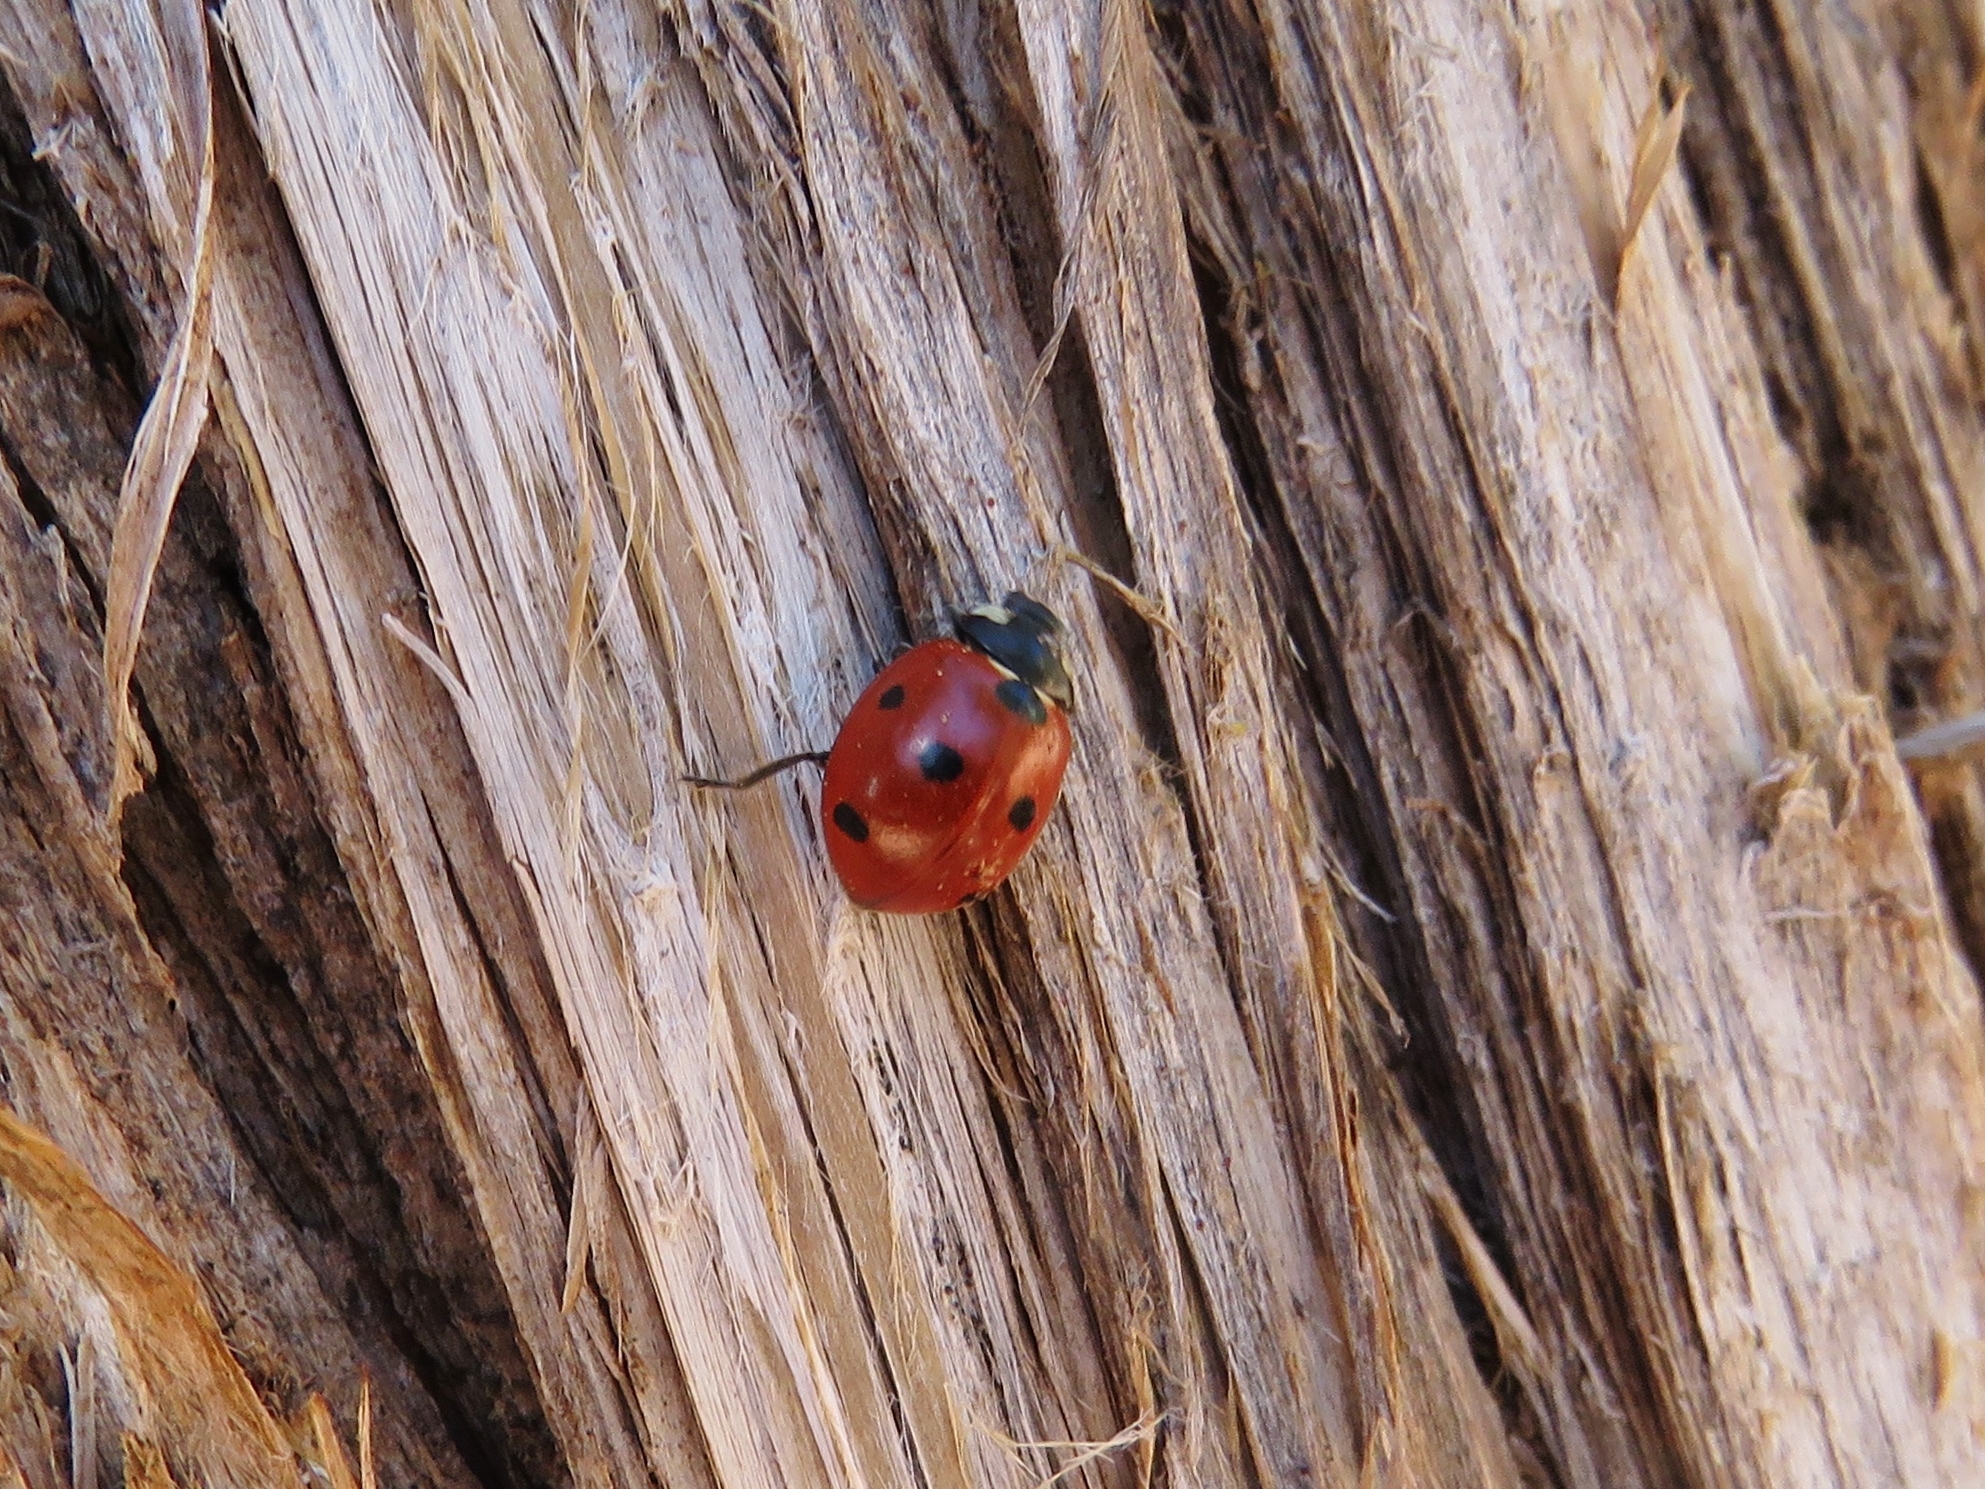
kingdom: Animalia
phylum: Arthropoda
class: Insecta
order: Coleoptera
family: Coccinellidae
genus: Coccinella
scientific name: Coccinella septempunctata
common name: Sevenspotted lady beetle
